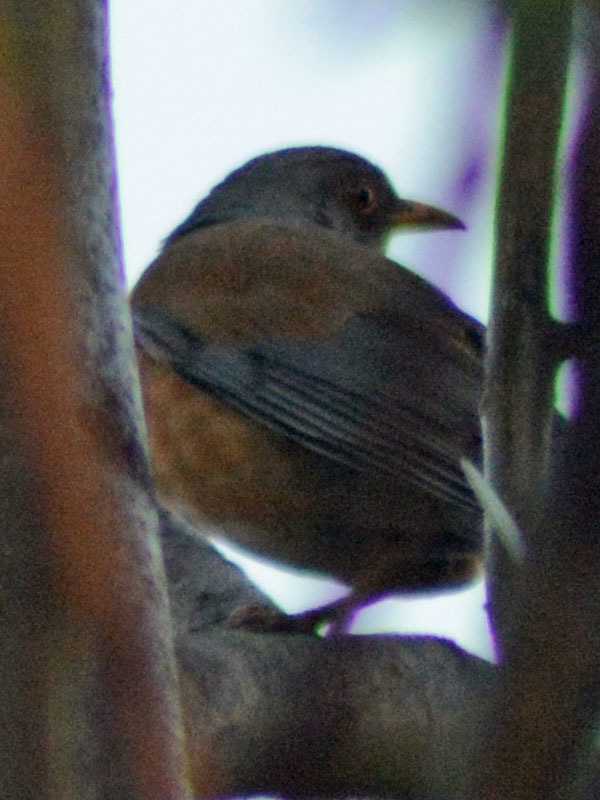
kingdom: Animalia
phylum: Chordata
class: Aves
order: Passeriformes
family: Turdidae
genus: Turdus
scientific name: Turdus rufopalliatus
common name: Rufous-backed robin
